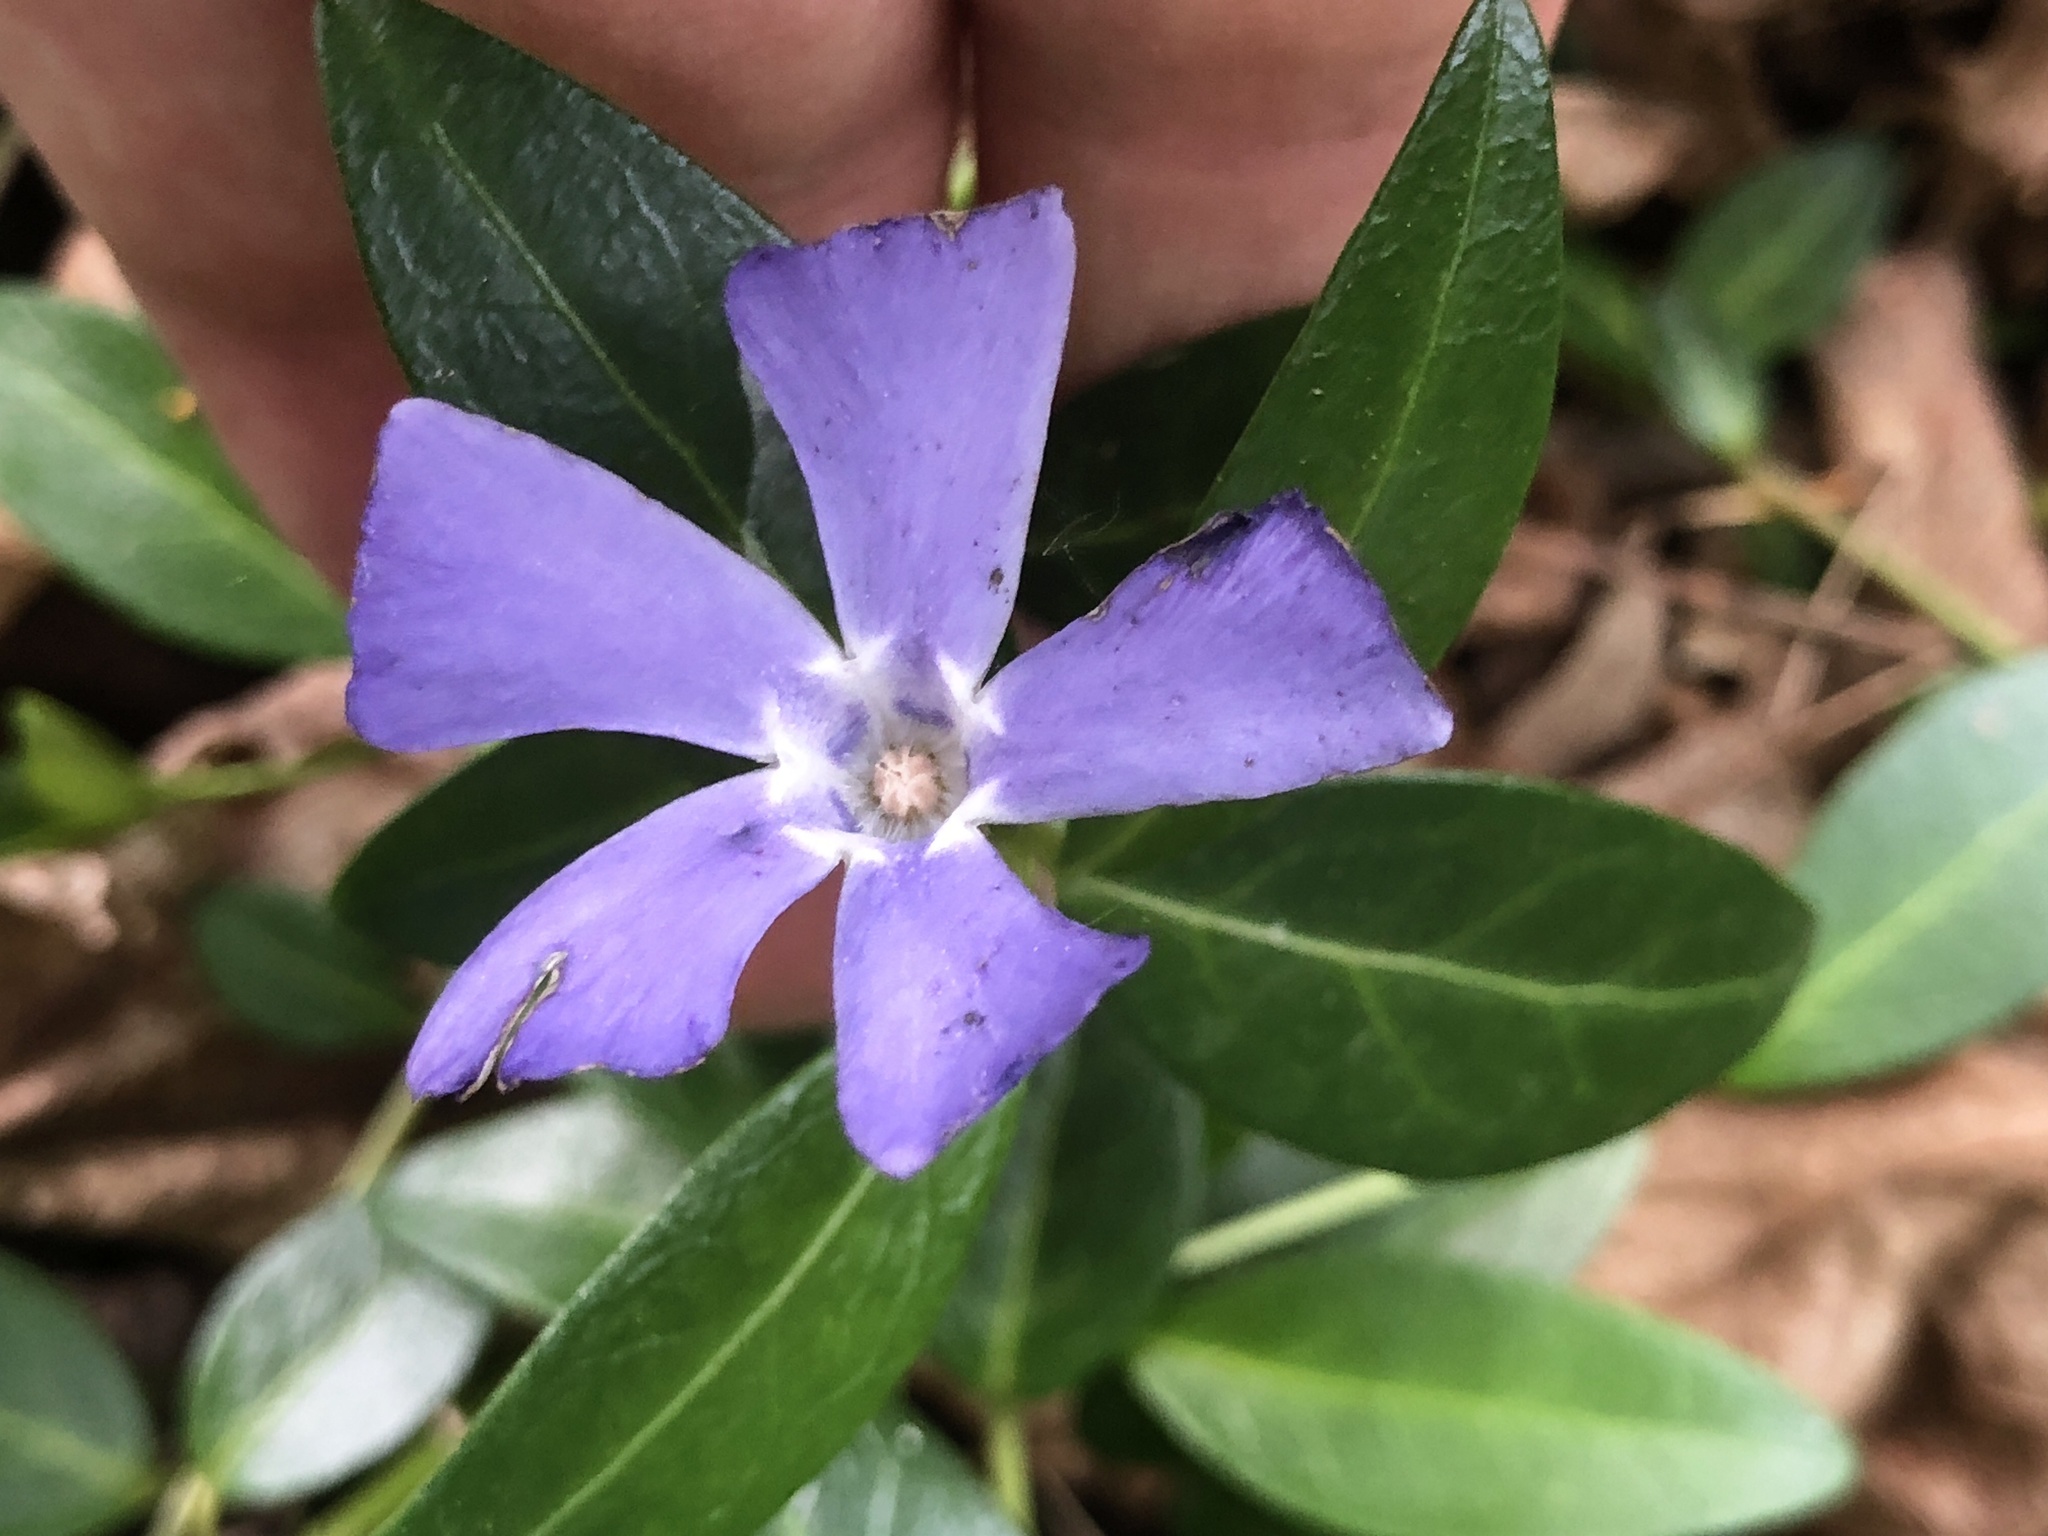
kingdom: Plantae
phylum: Tracheophyta
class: Magnoliopsida
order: Gentianales
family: Apocynaceae
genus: Vinca
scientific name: Vinca minor
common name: Lesser periwinkle
